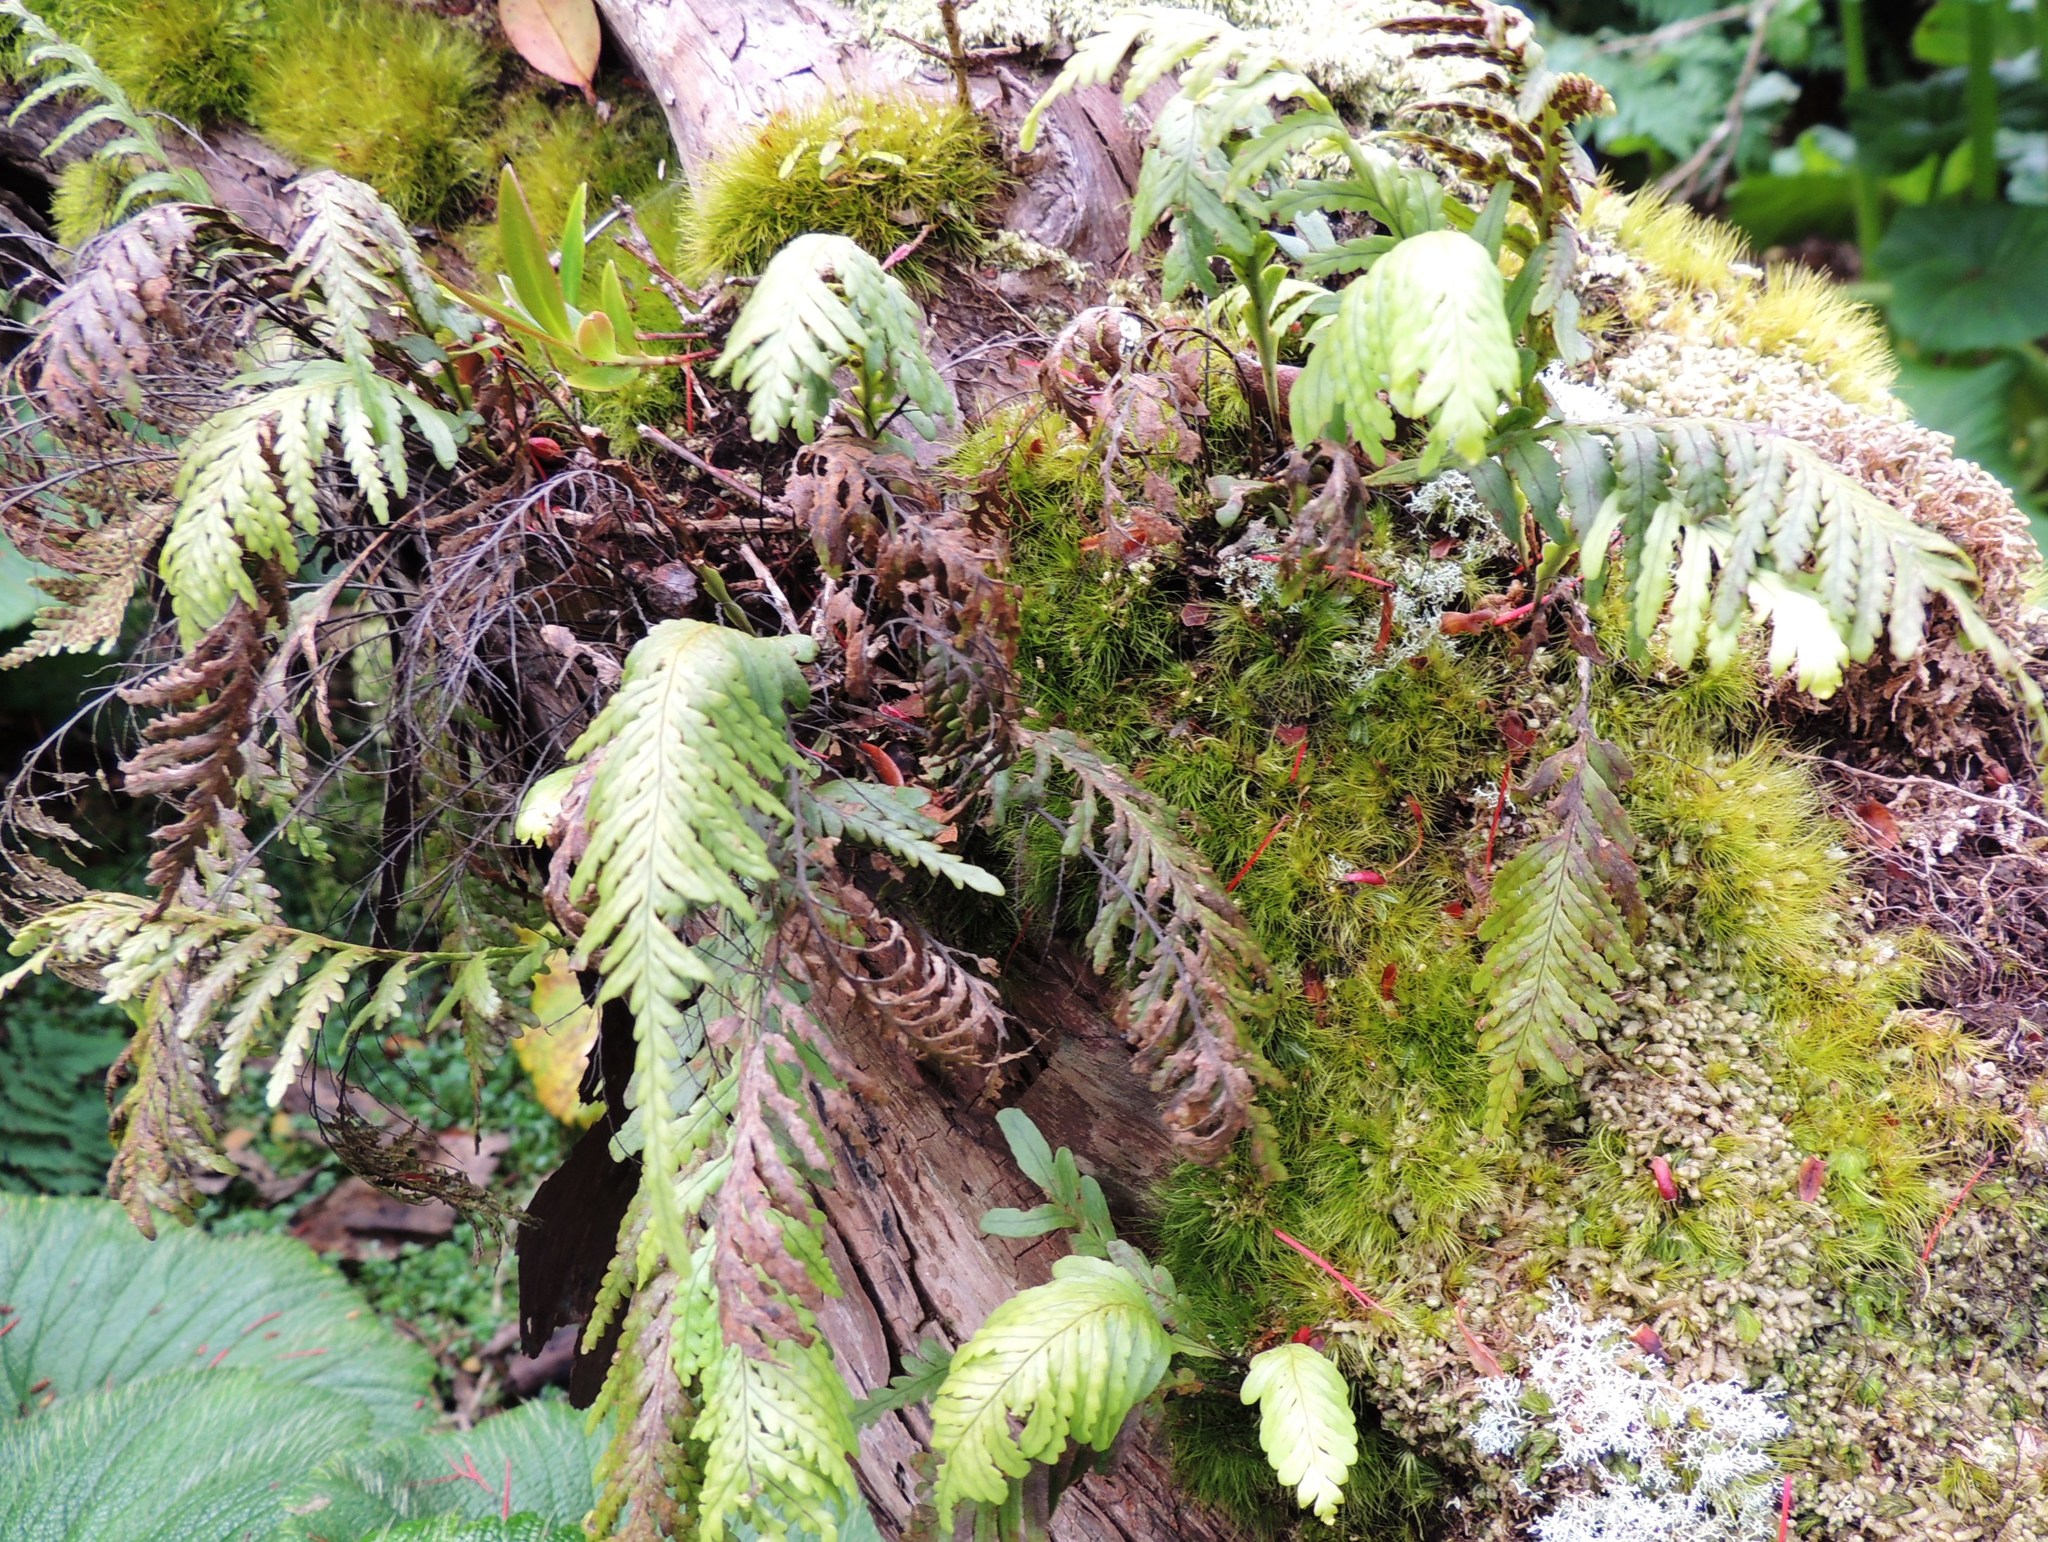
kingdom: Plantae
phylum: Tracheophyta
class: Polypodiopsida
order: Polypodiales
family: Polypodiaceae
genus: Notogrammitis
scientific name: Notogrammitis heterophylla
